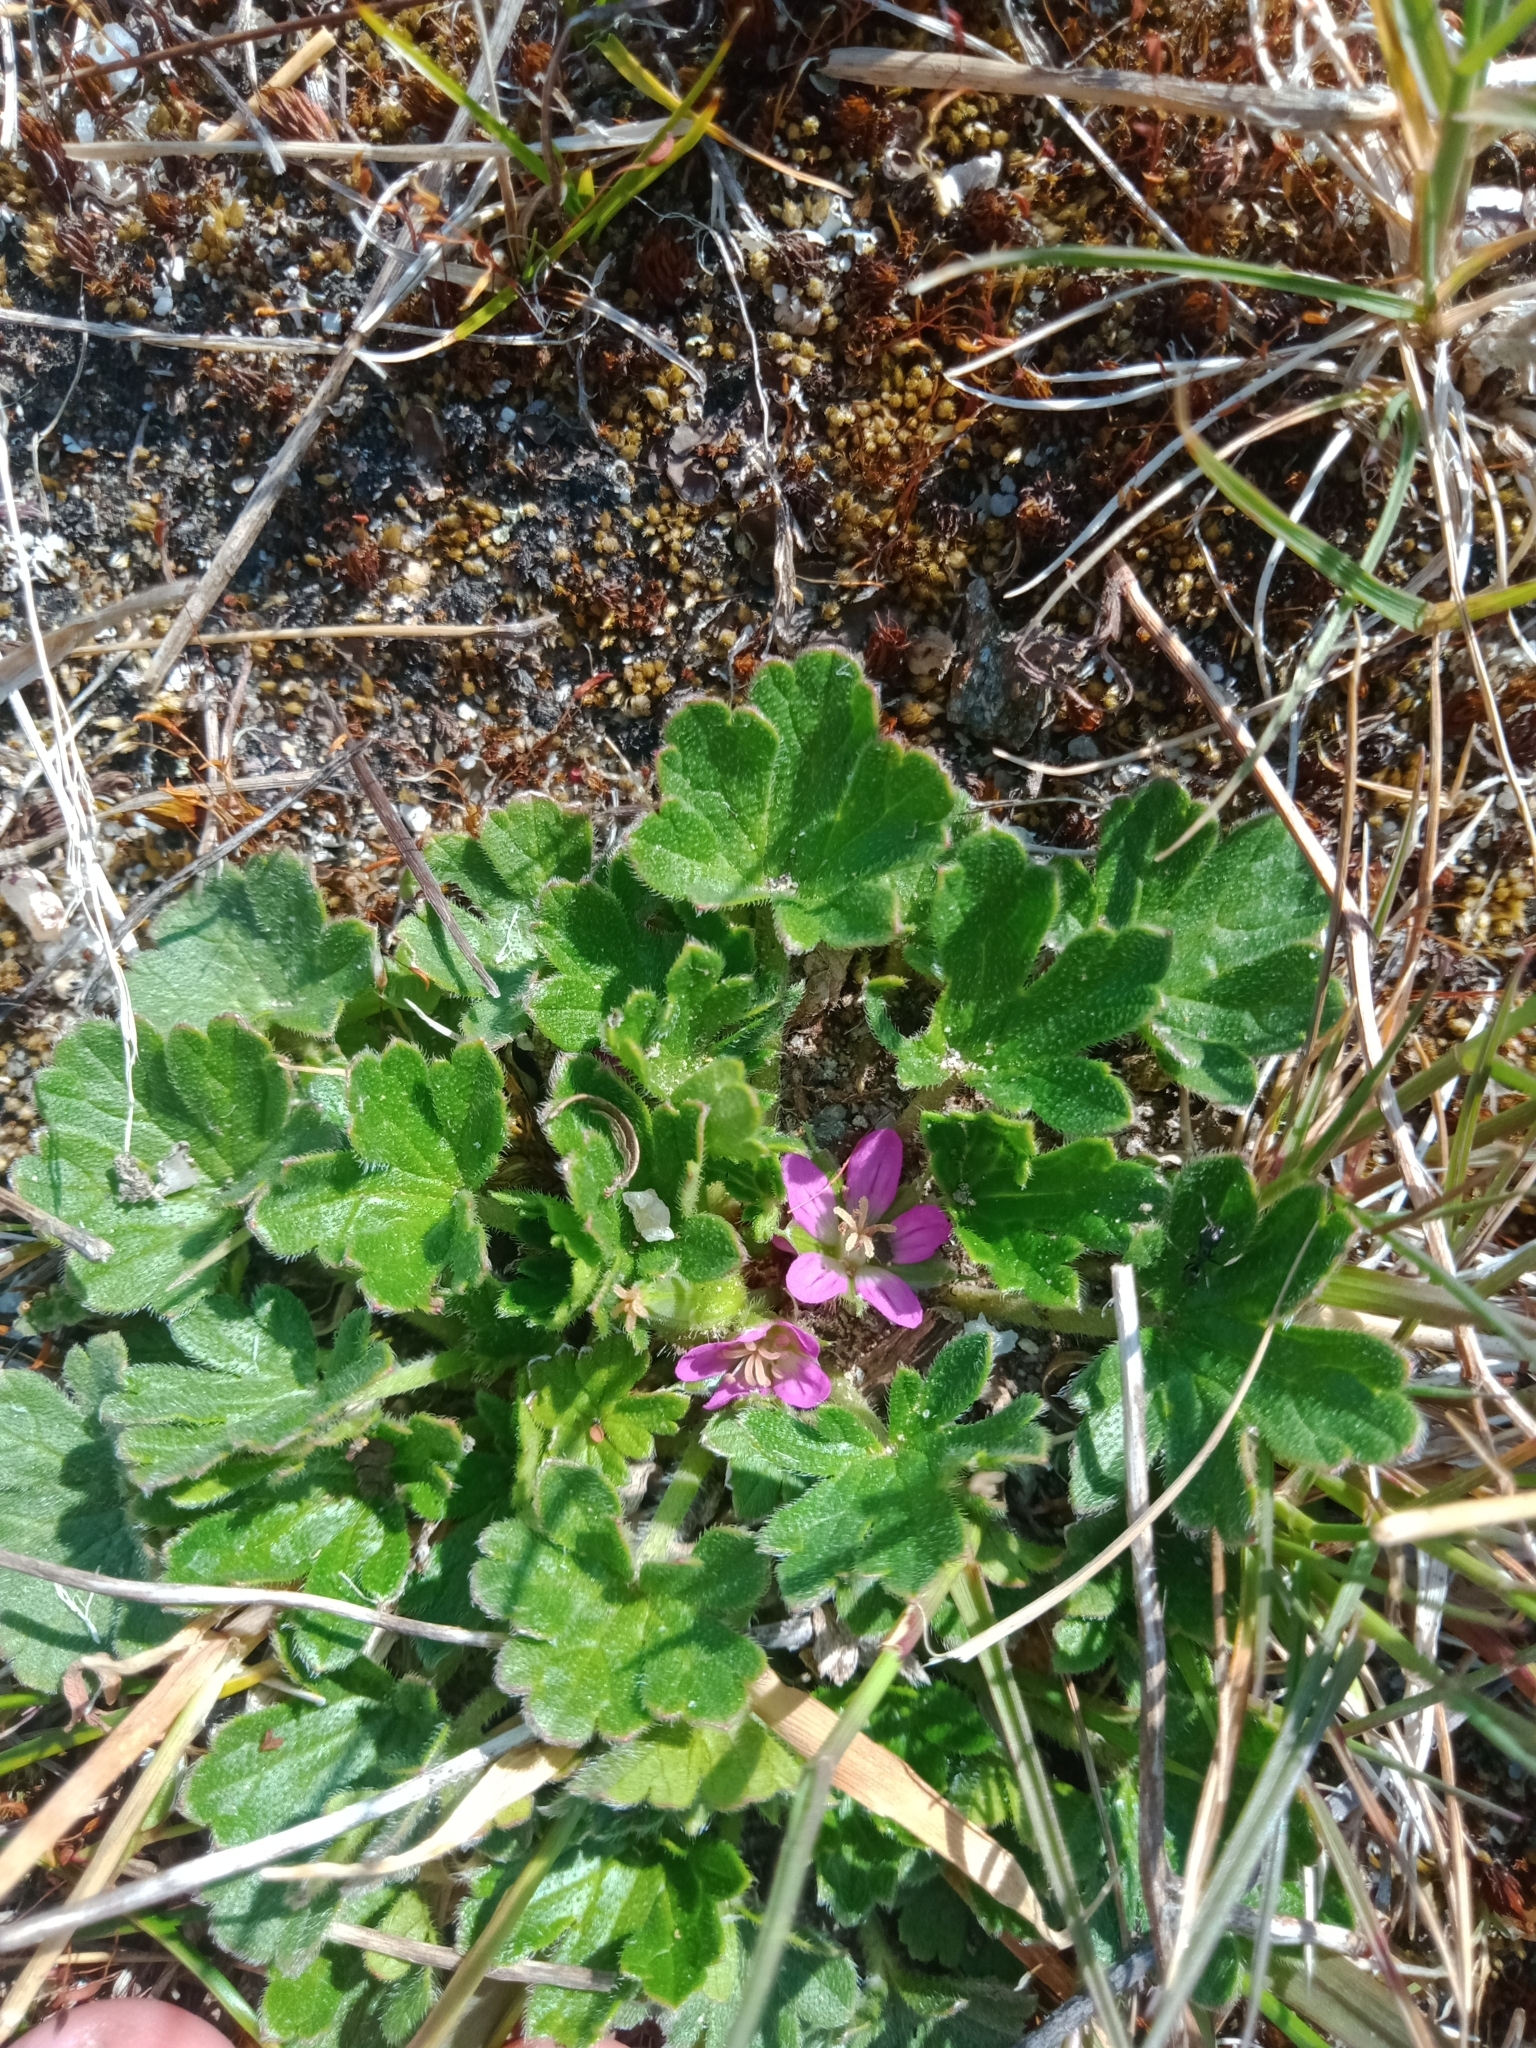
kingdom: Plantae
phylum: Tracheophyta
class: Magnoliopsida
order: Geraniales
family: Geraniaceae
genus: Geranium
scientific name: Geranium brevicaule
